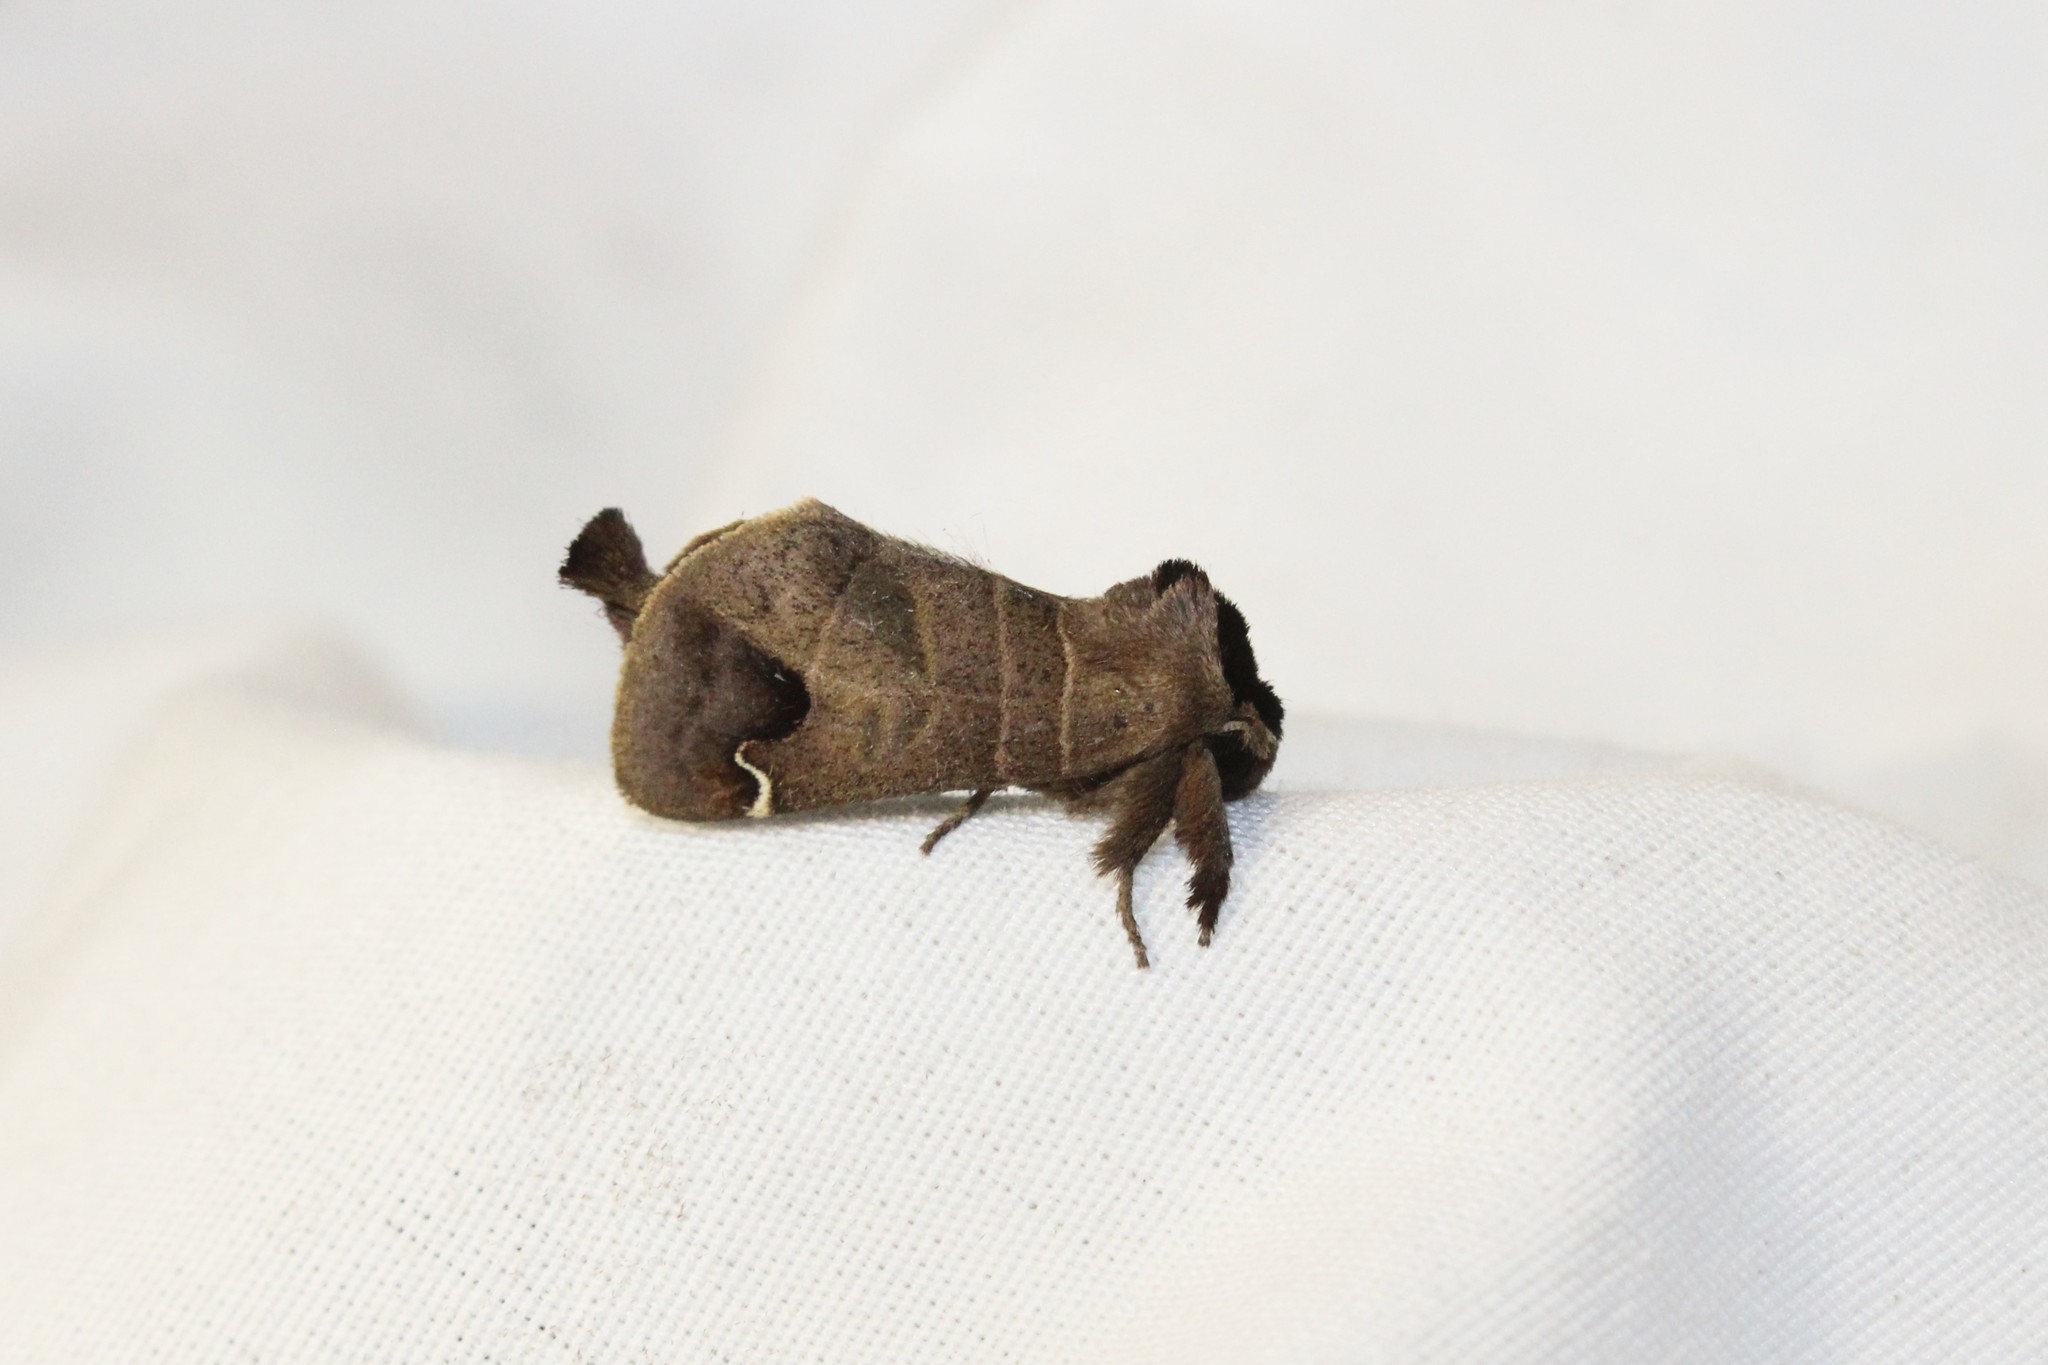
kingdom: Animalia
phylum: Arthropoda
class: Insecta
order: Lepidoptera
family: Notodontidae
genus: Clostera
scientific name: Clostera albosigma
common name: Sigmoid prominent
